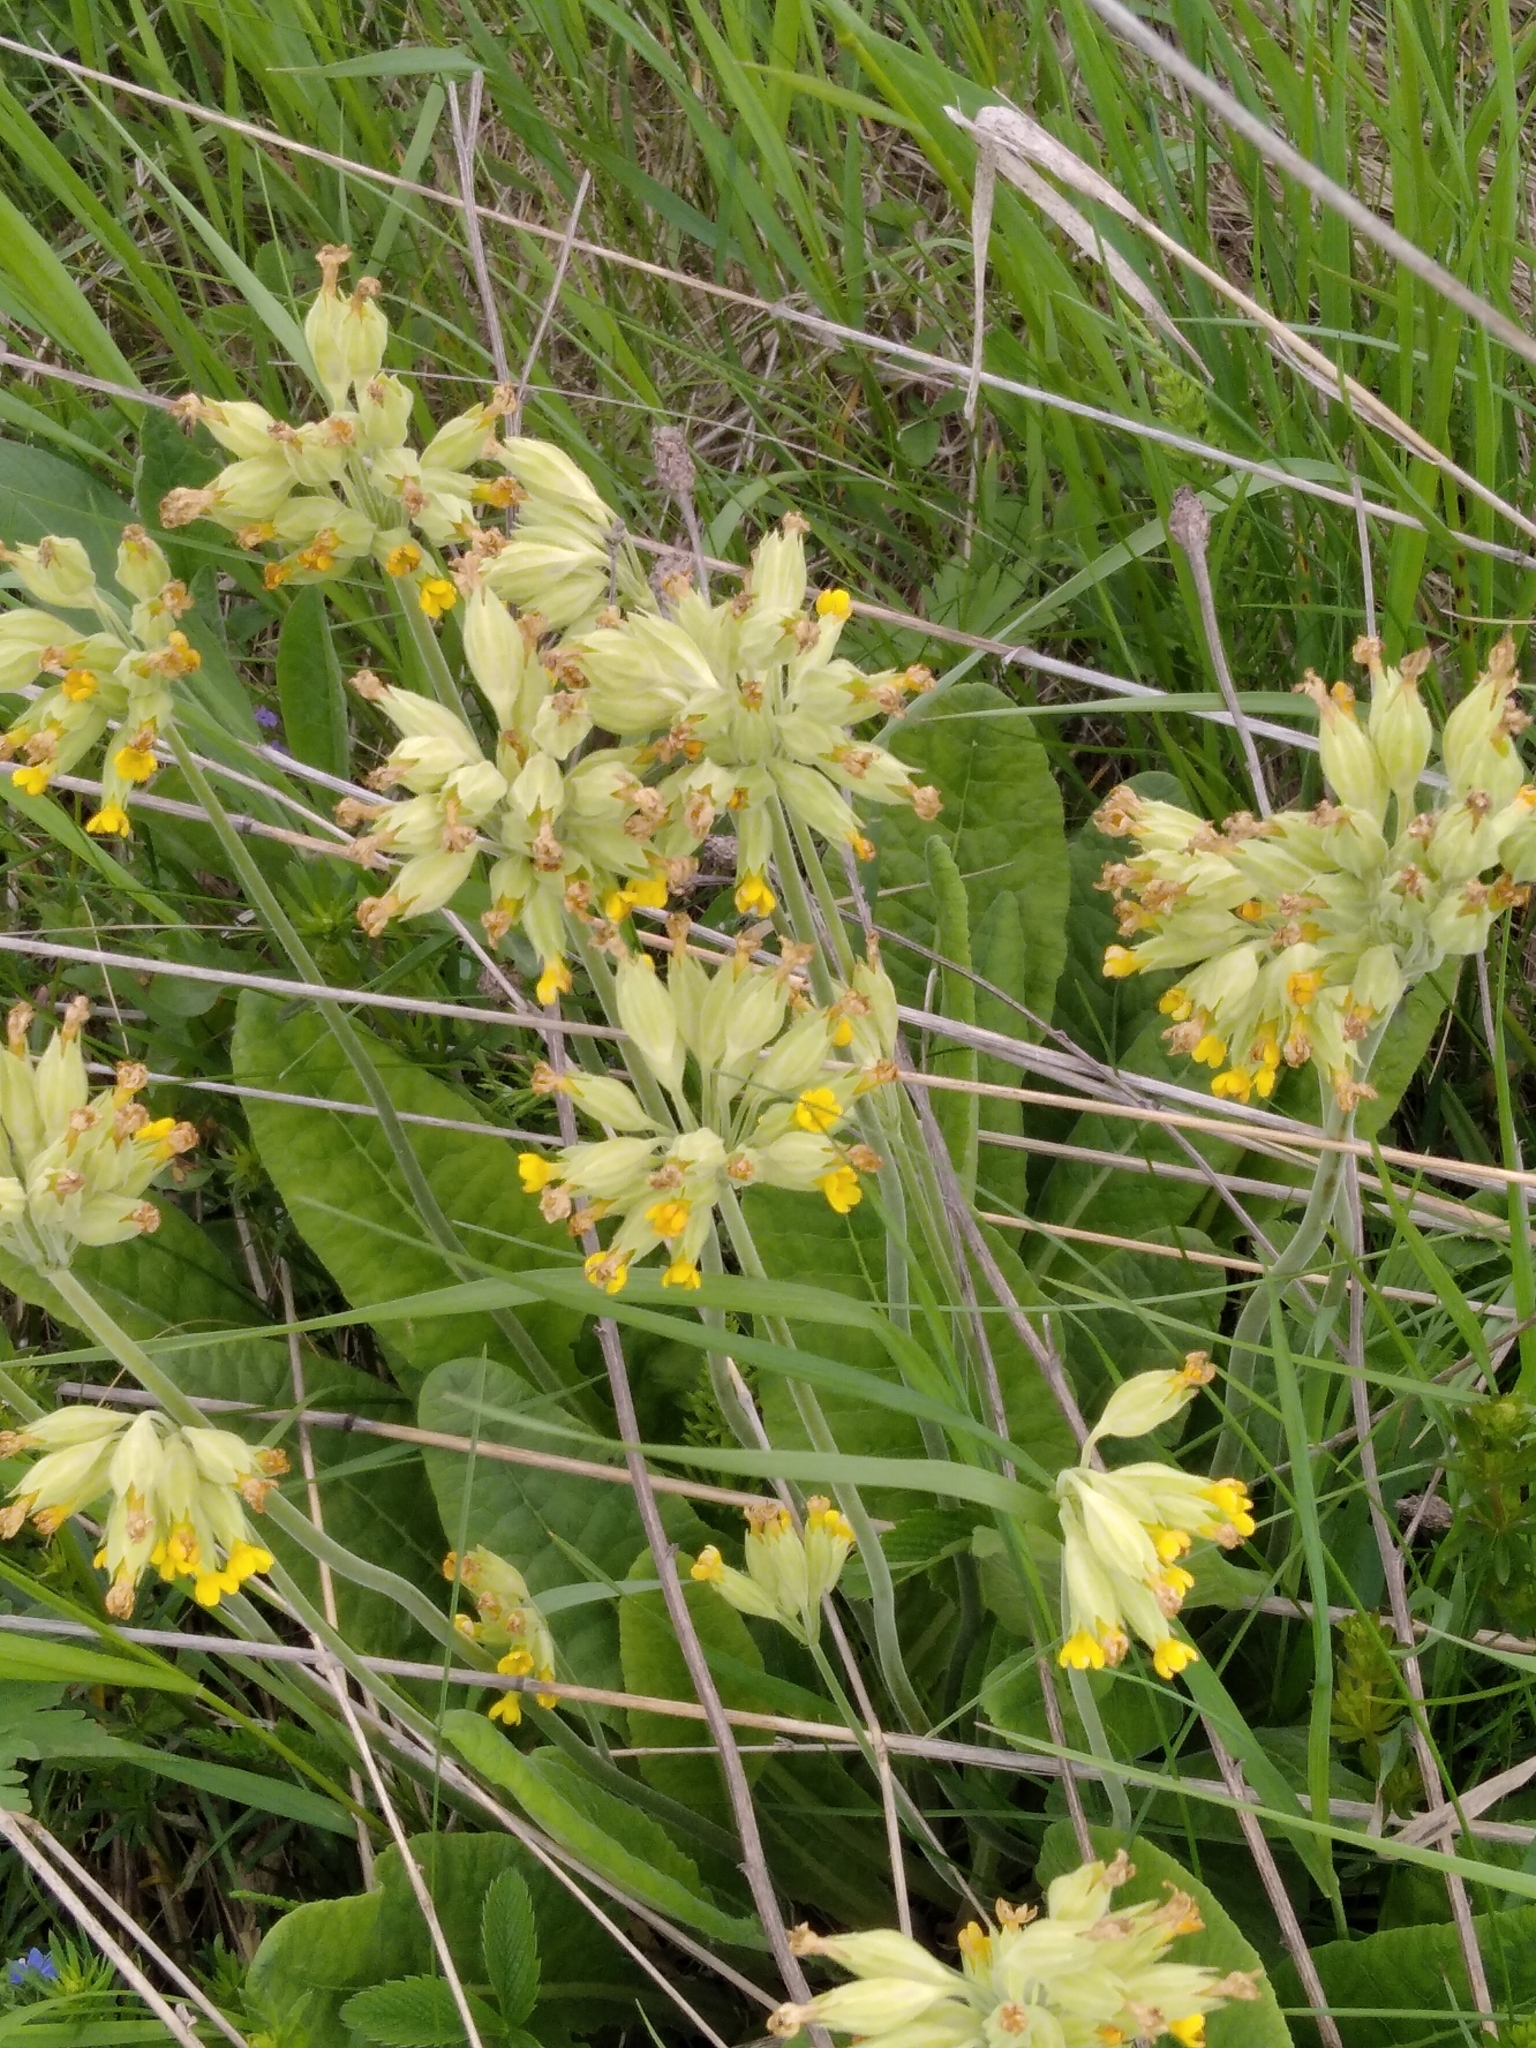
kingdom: Plantae
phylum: Tracheophyta
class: Magnoliopsida
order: Ericales
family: Primulaceae
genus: Primula
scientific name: Primula veris
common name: Cowslip
